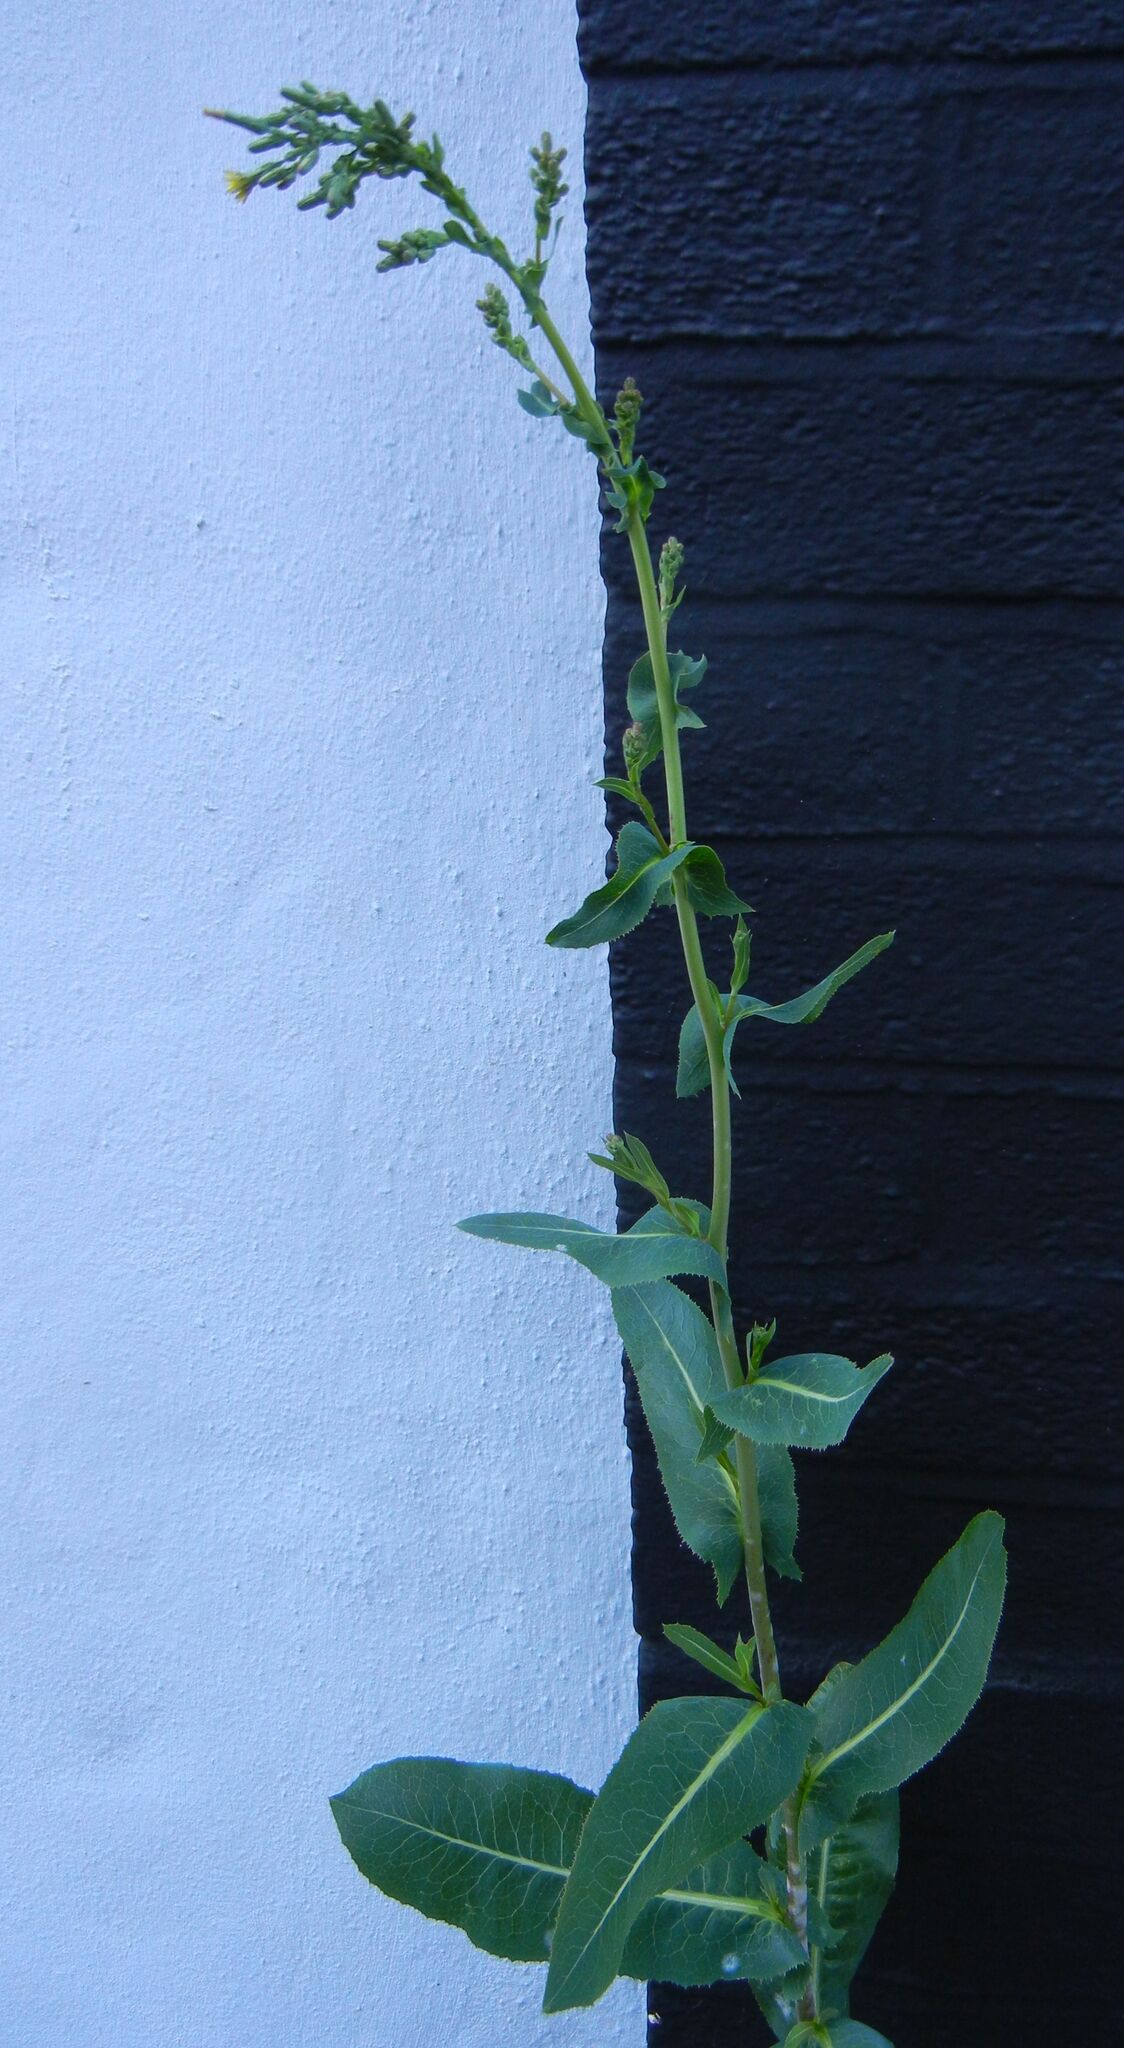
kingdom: Plantae
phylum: Tracheophyta
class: Magnoliopsida
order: Asterales
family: Asteraceae
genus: Lactuca
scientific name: Lactuca serriola
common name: Prickly lettuce
